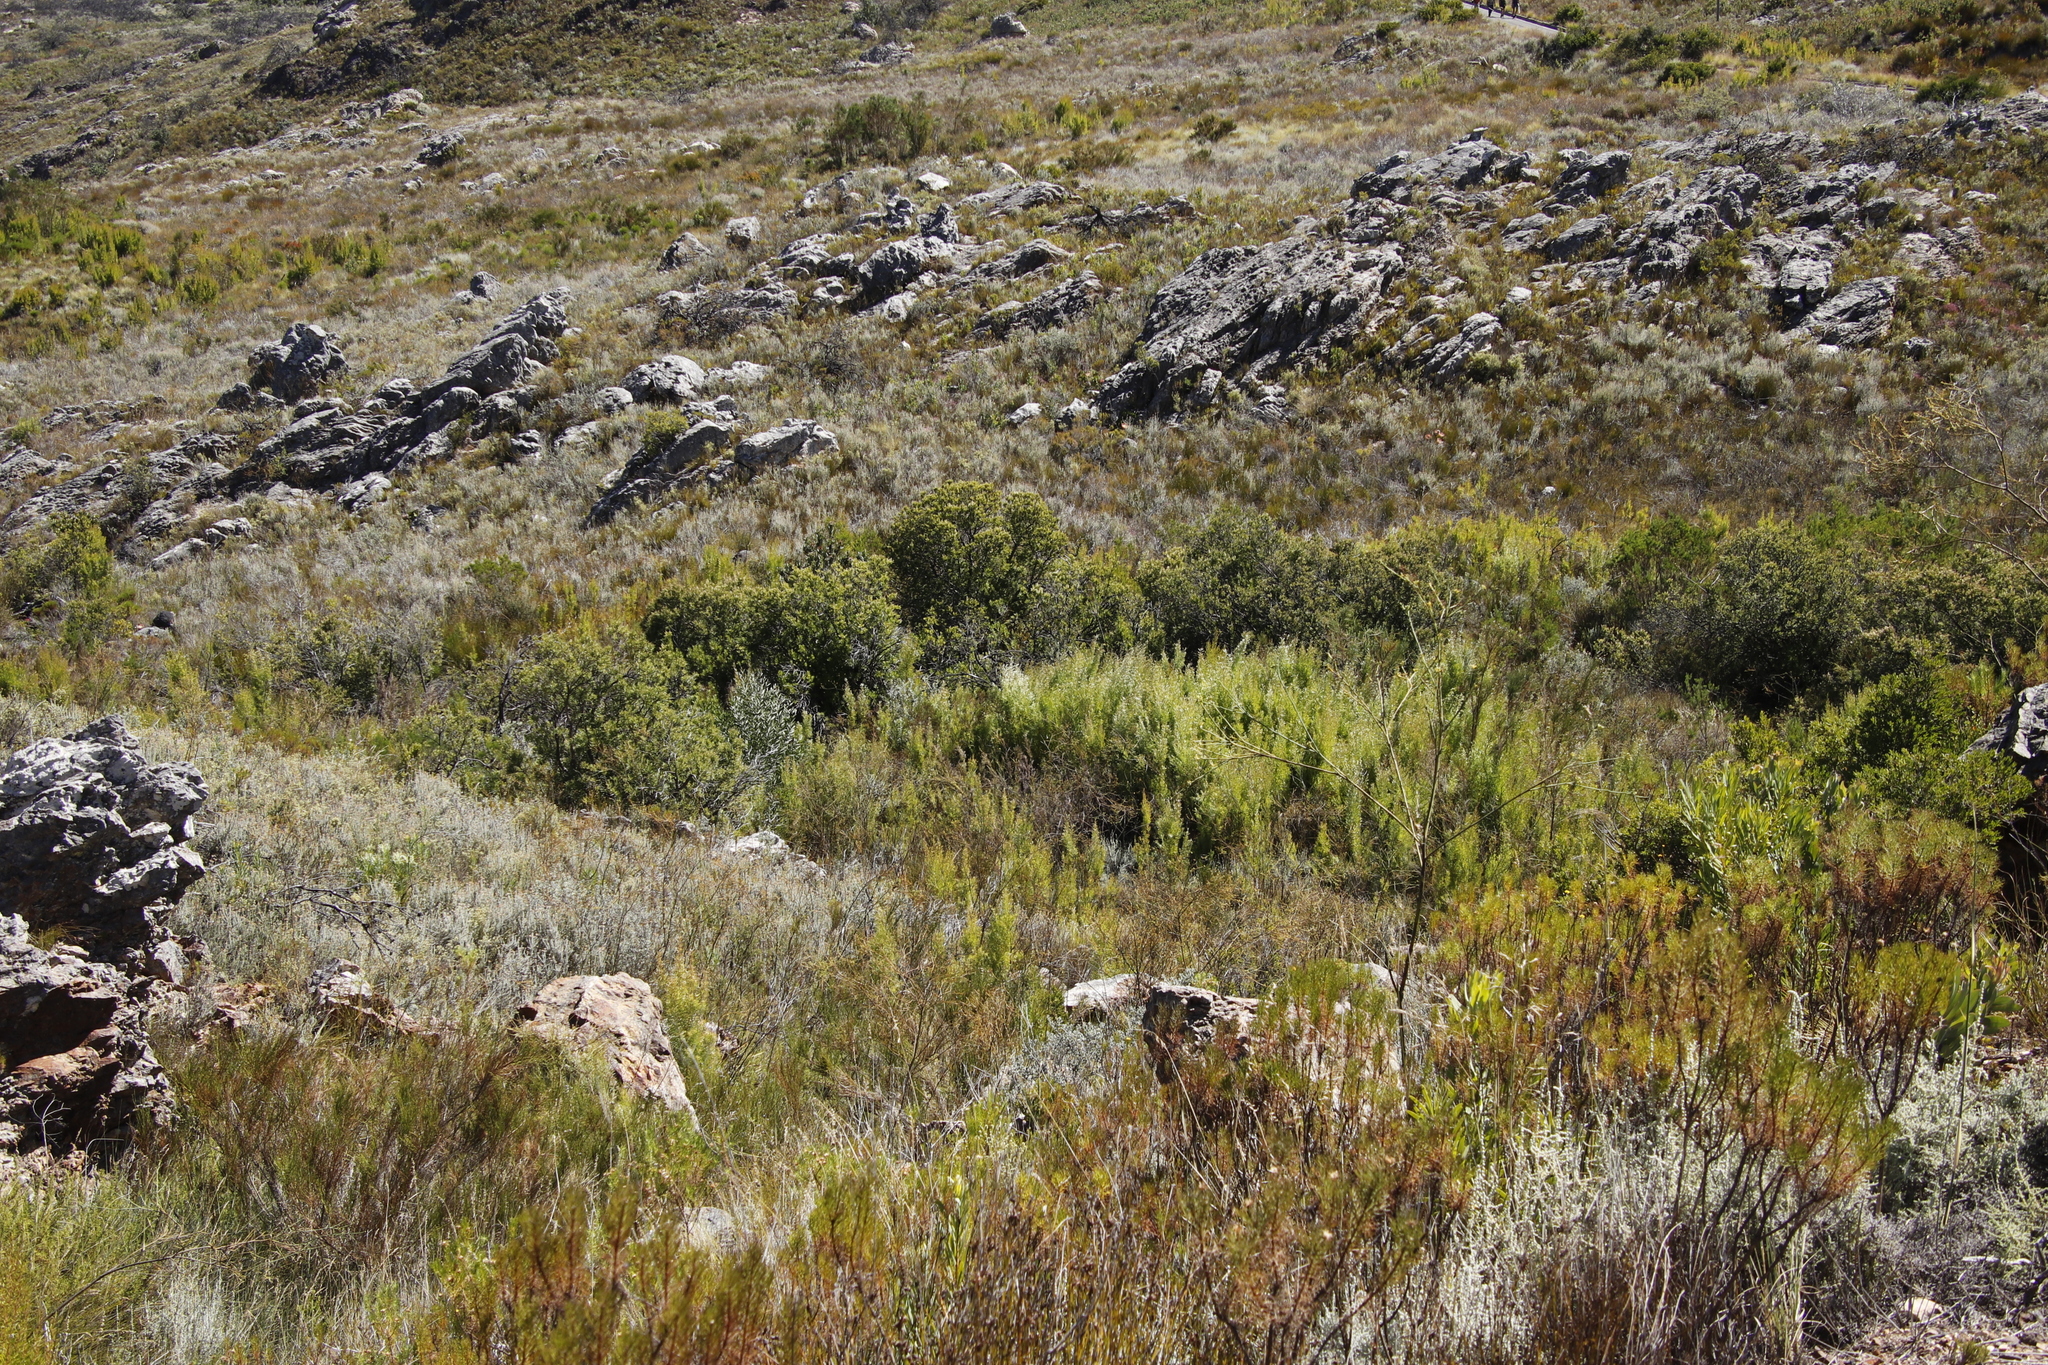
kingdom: Plantae
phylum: Tracheophyta
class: Magnoliopsida
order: Proteales
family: Proteaceae
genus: Leucadendron
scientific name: Leucadendron salicifolium
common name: Common stream conebush
